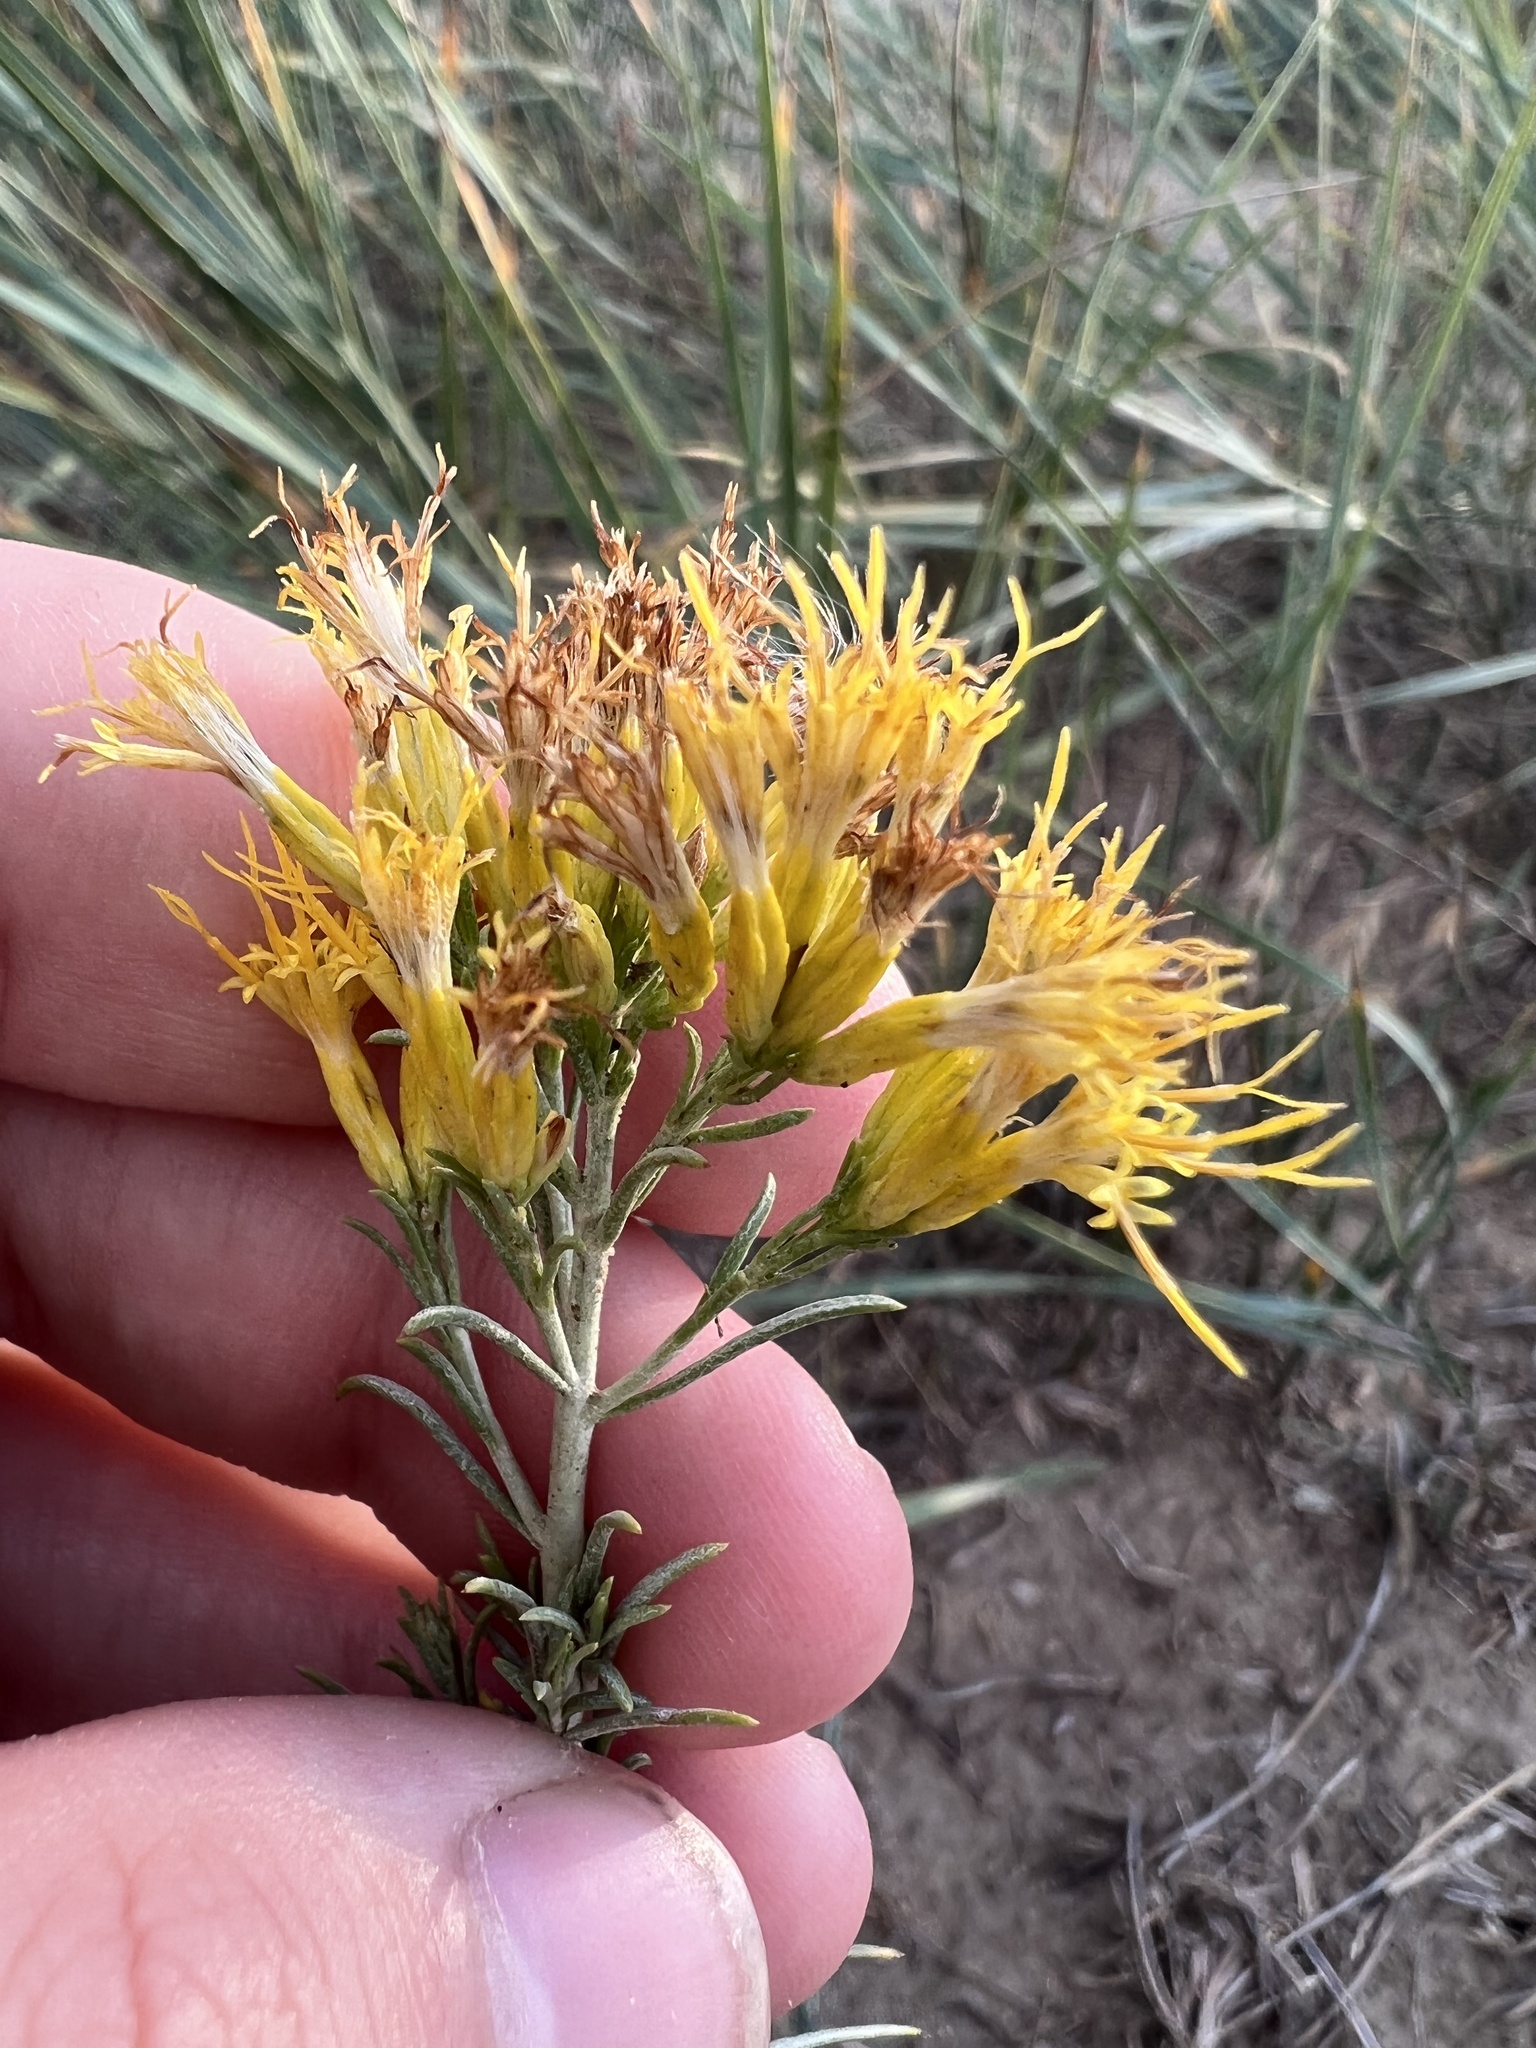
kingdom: Plantae
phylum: Tracheophyta
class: Magnoliopsida
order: Asterales
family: Asteraceae
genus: Ericameria
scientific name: Ericameria nauseosa
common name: Rubber rabbitbrush
